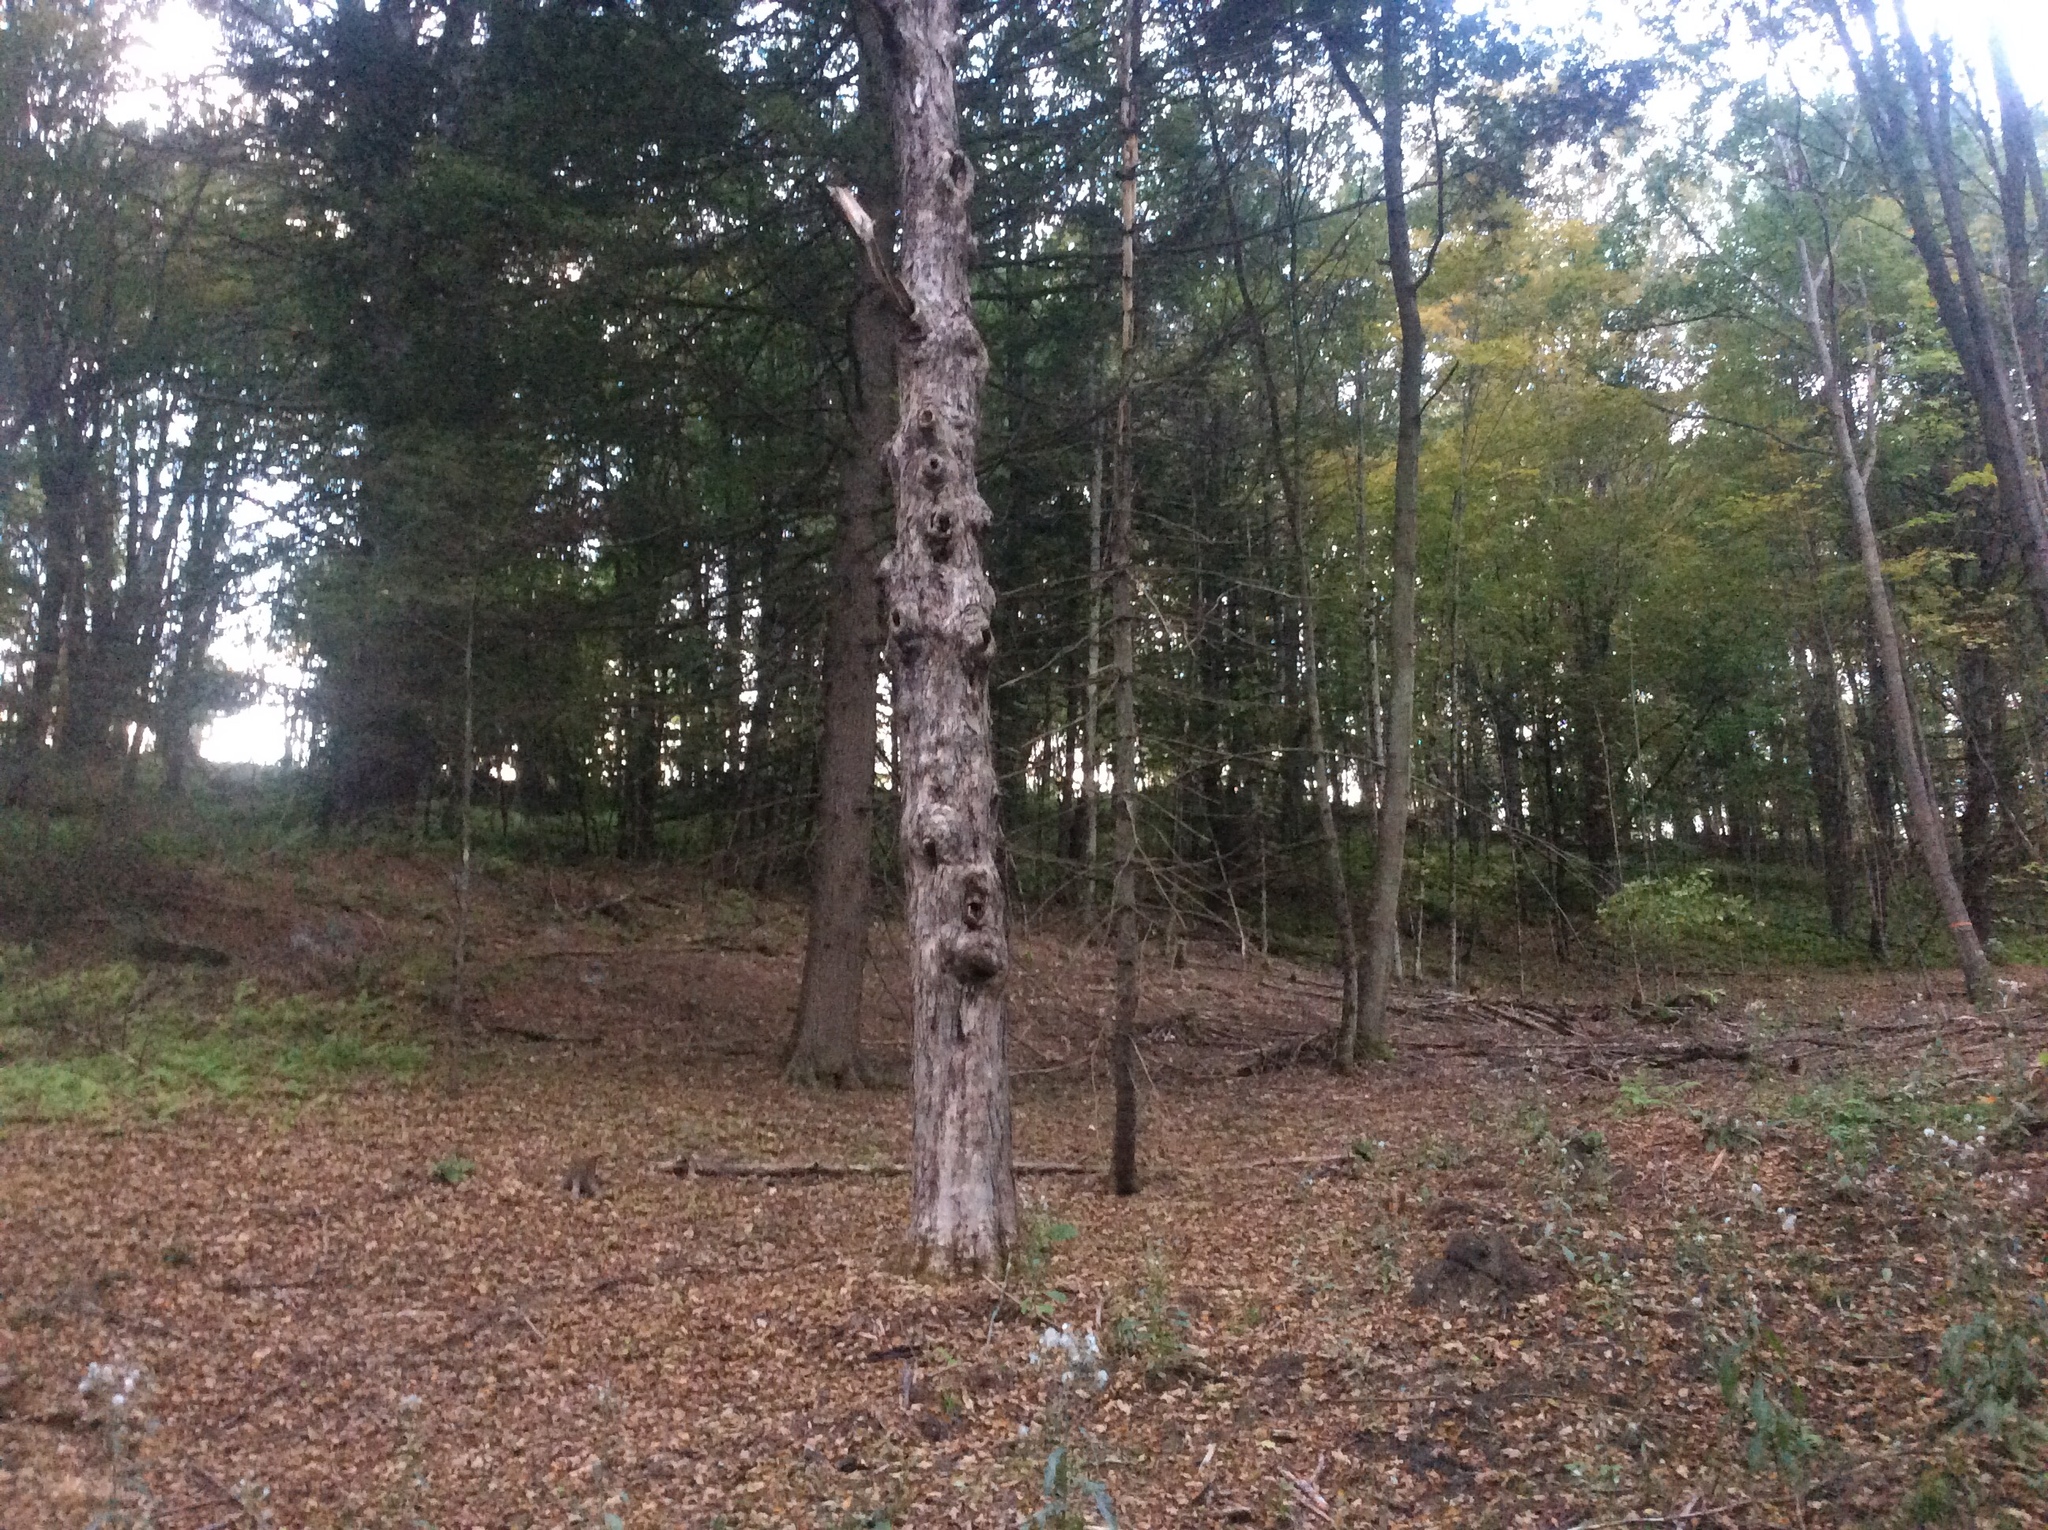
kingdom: Plantae
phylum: Tracheophyta
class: Magnoliopsida
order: Sapindales
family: Sapindaceae
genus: Acer
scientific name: Acer saccharum
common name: Sugar maple
